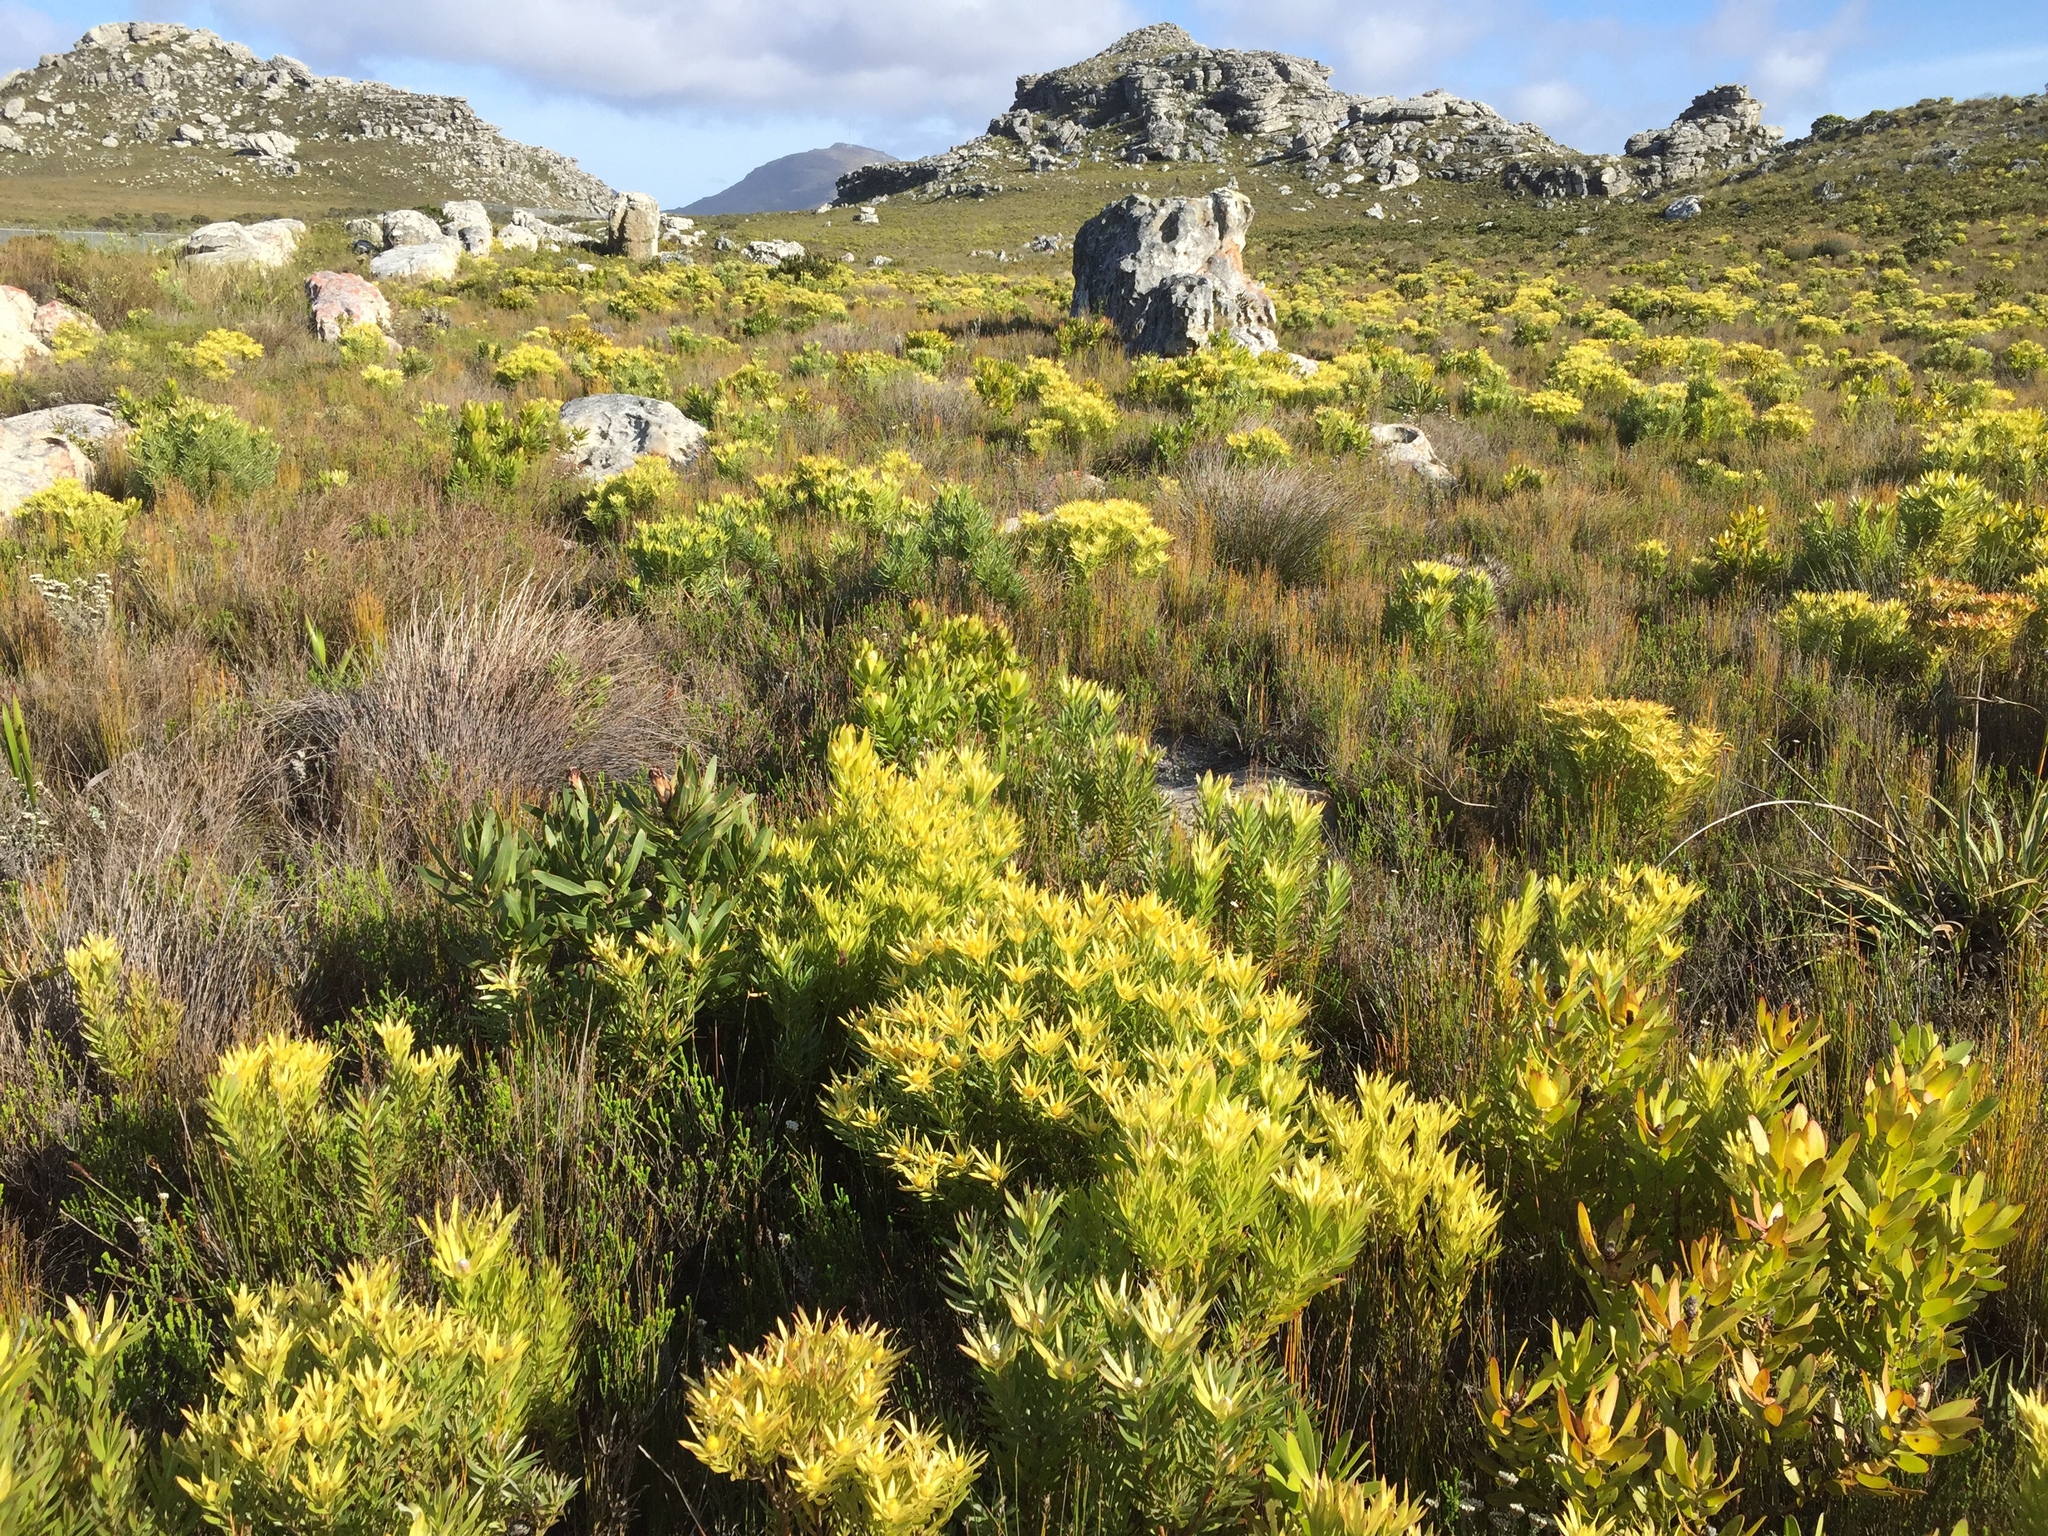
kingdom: Plantae
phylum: Tracheophyta
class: Magnoliopsida
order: Proteales
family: Proteaceae
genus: Leucadendron
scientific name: Leucadendron xanthoconus
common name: Sickle-leaf conebush
